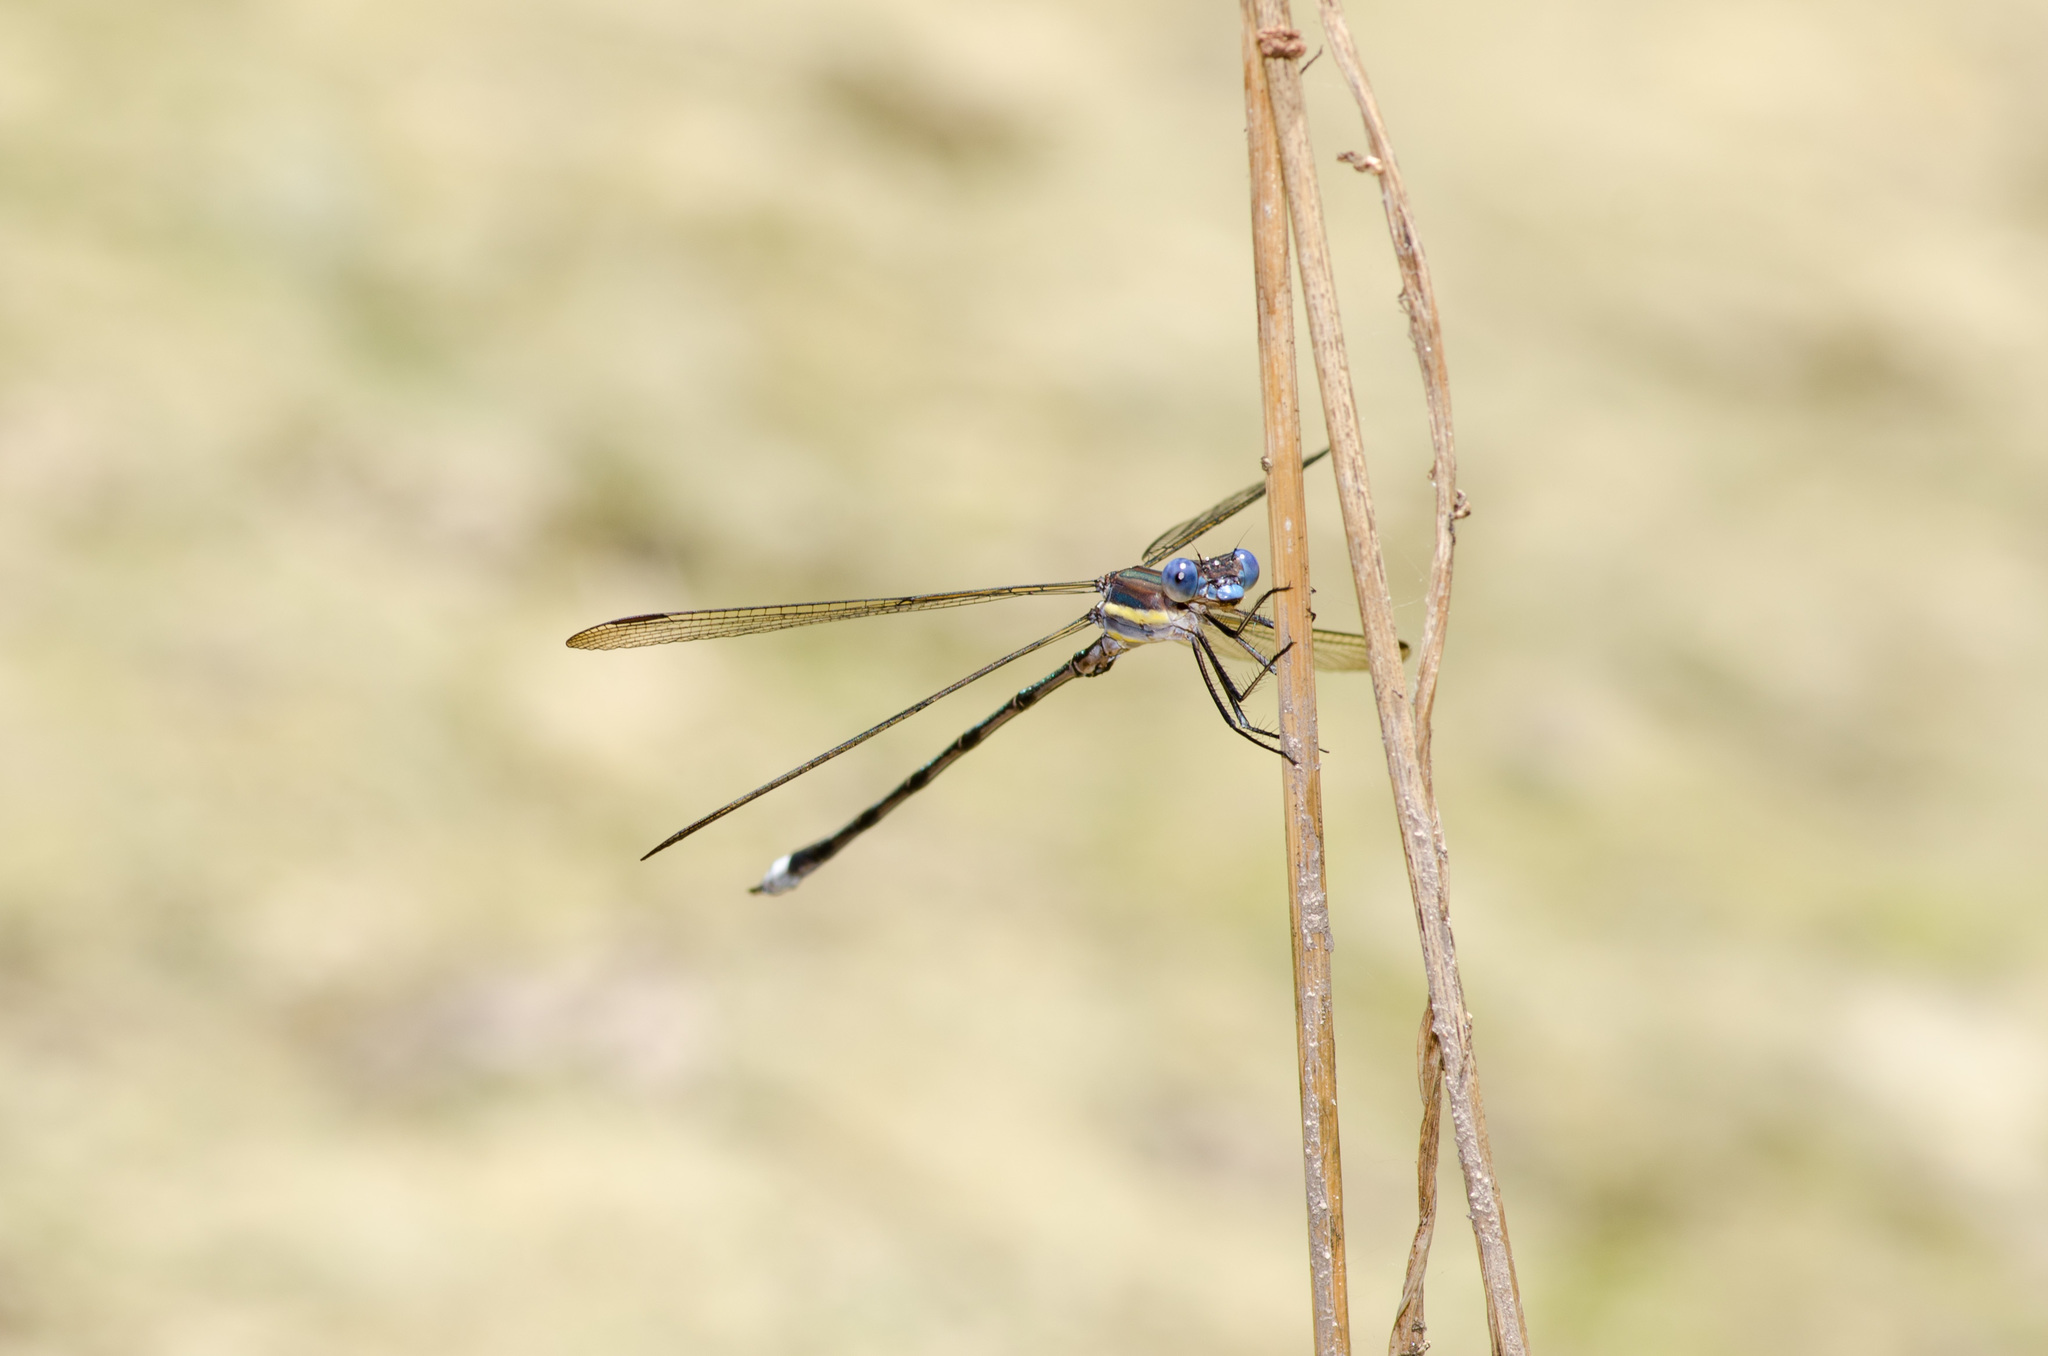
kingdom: Animalia
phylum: Arthropoda
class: Insecta
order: Odonata
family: Lestidae
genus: Archilestes
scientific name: Archilestes grandis
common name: Great spreadwing
